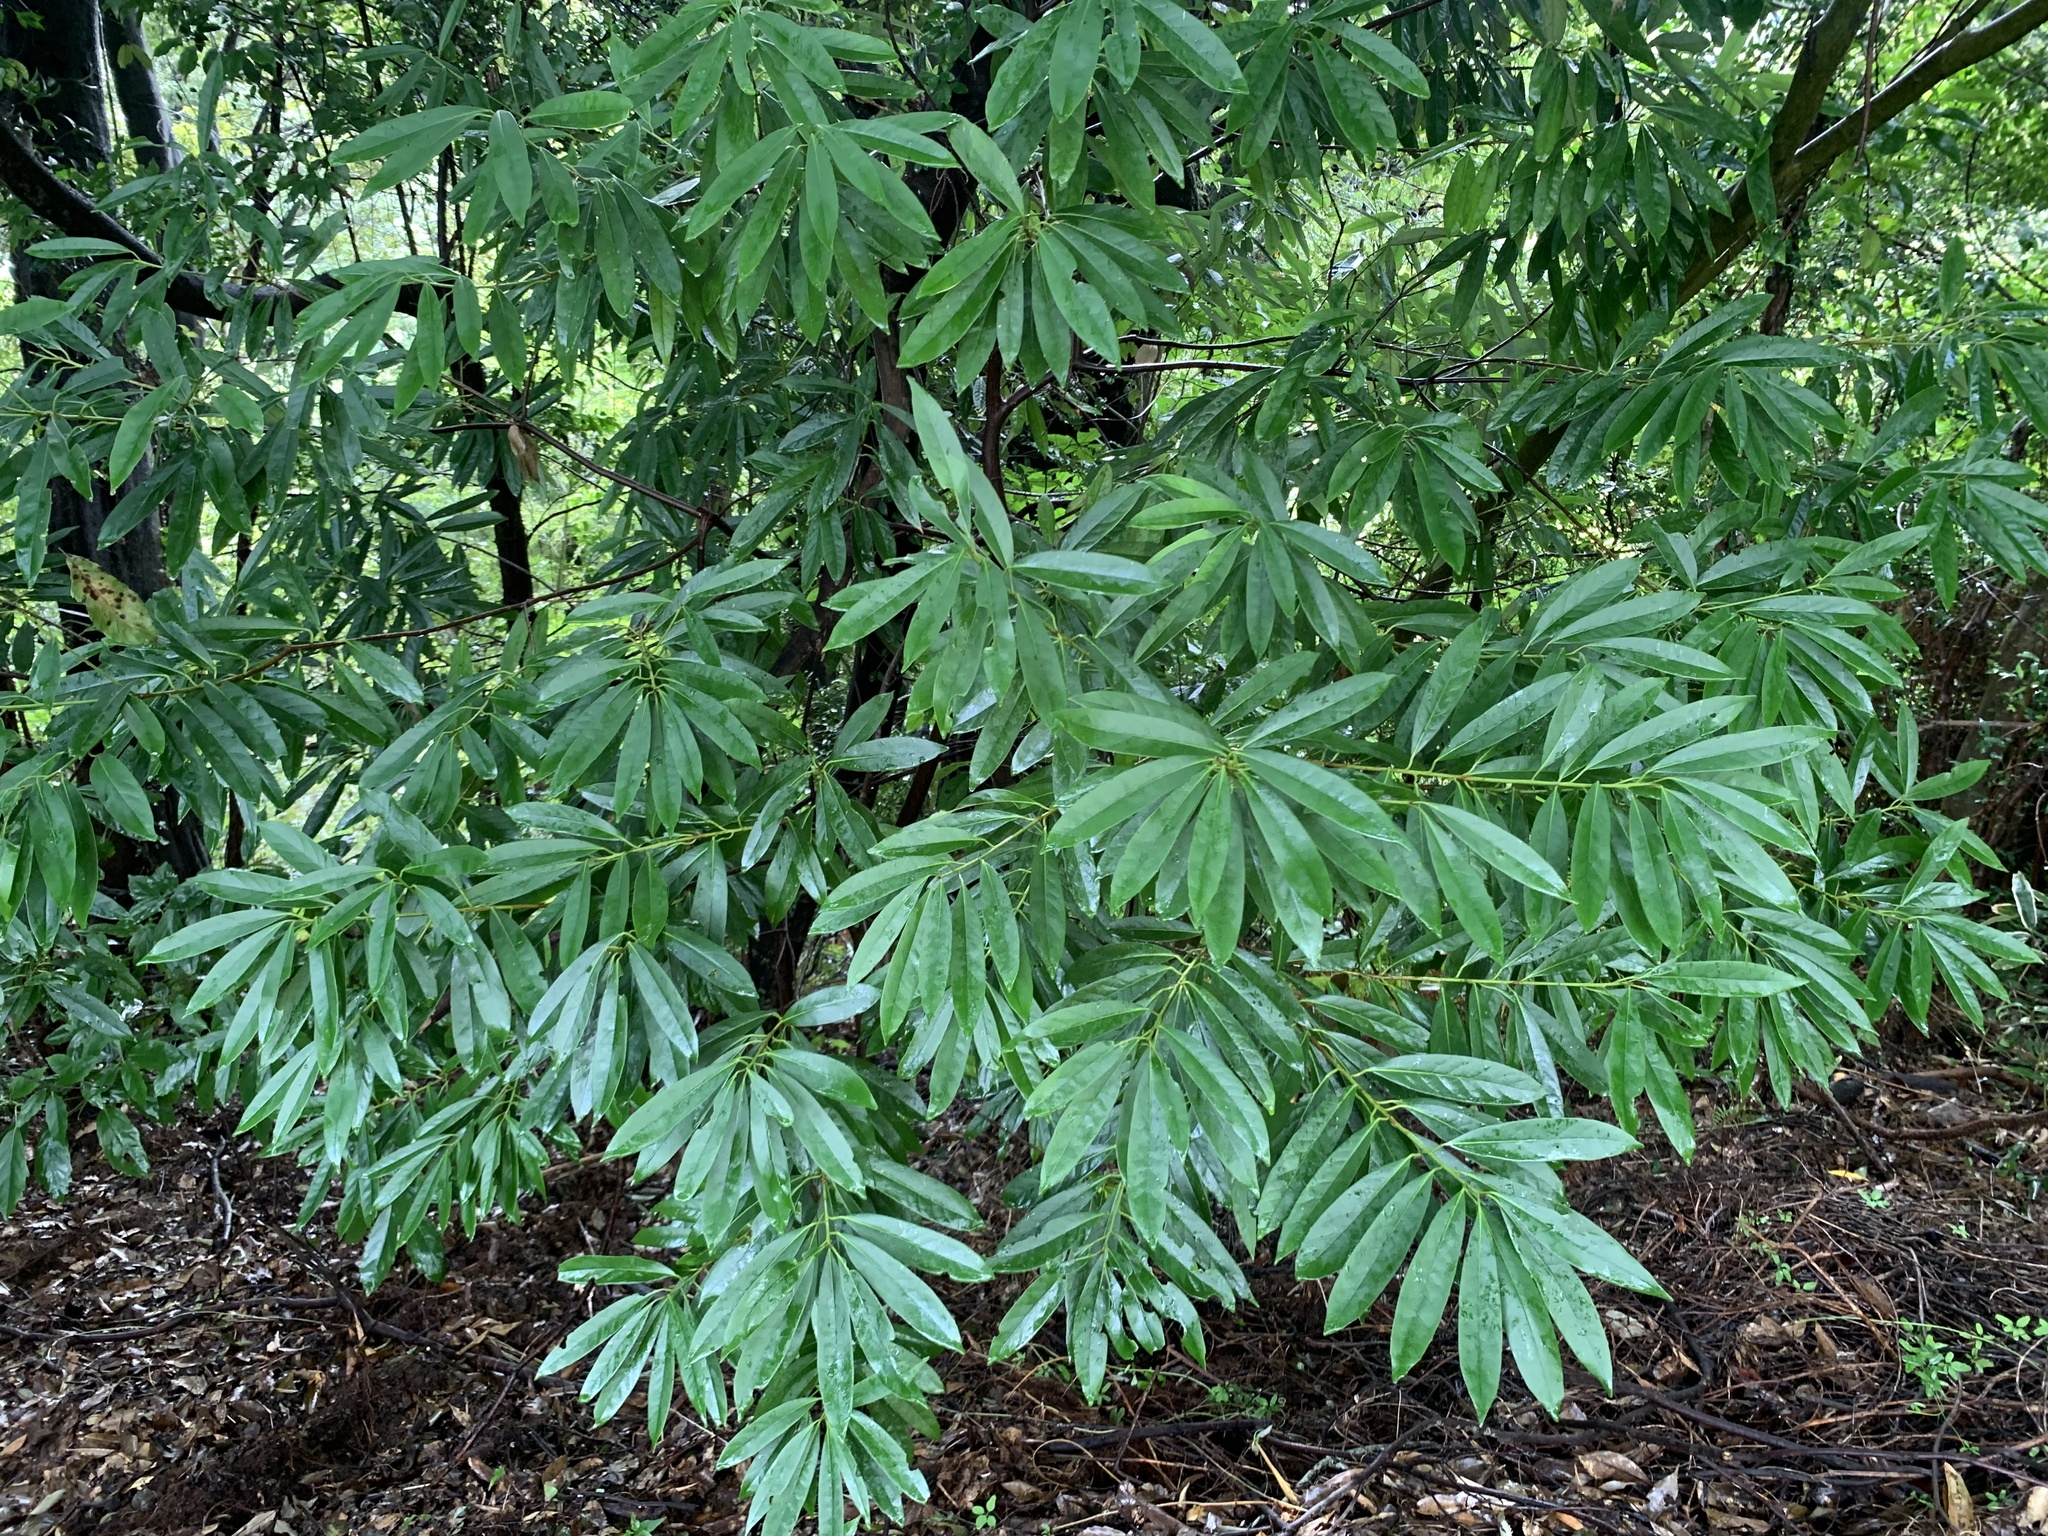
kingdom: Plantae
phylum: Tracheophyta
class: Magnoliopsida
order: Ericales
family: Symplocaceae
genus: Symplocos
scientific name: Symplocos glauca
